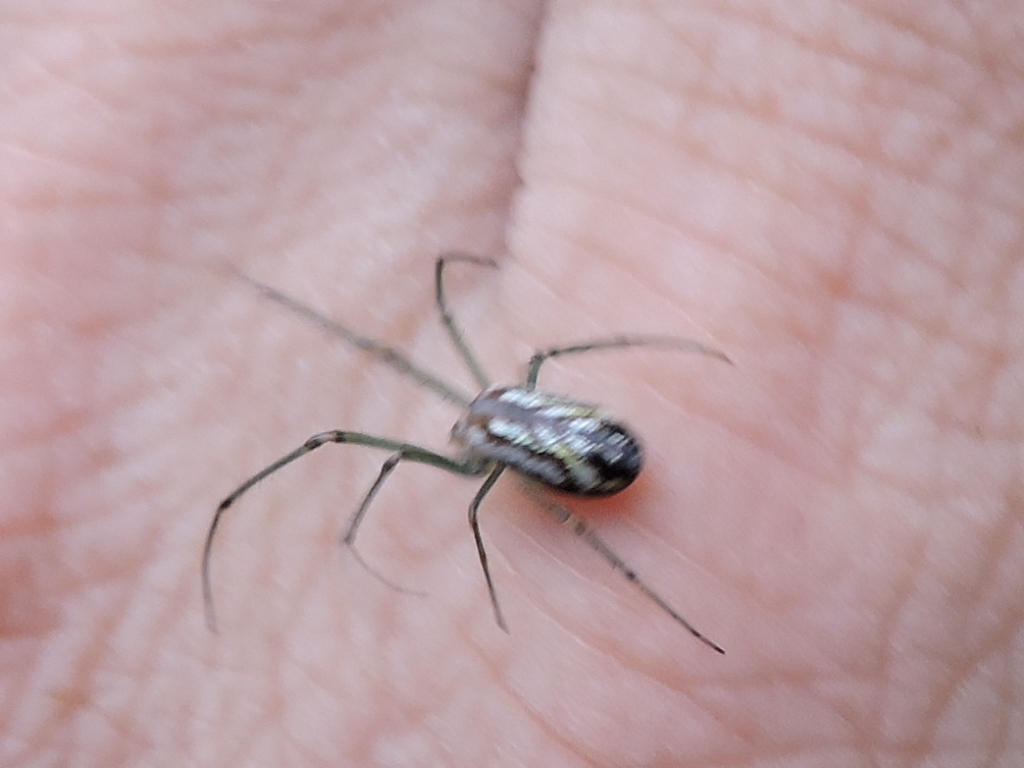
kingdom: Animalia
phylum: Arthropoda
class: Arachnida
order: Araneae
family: Tetragnathidae
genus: Leucauge
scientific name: Leucauge venusta
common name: Longjawed orb weavers
